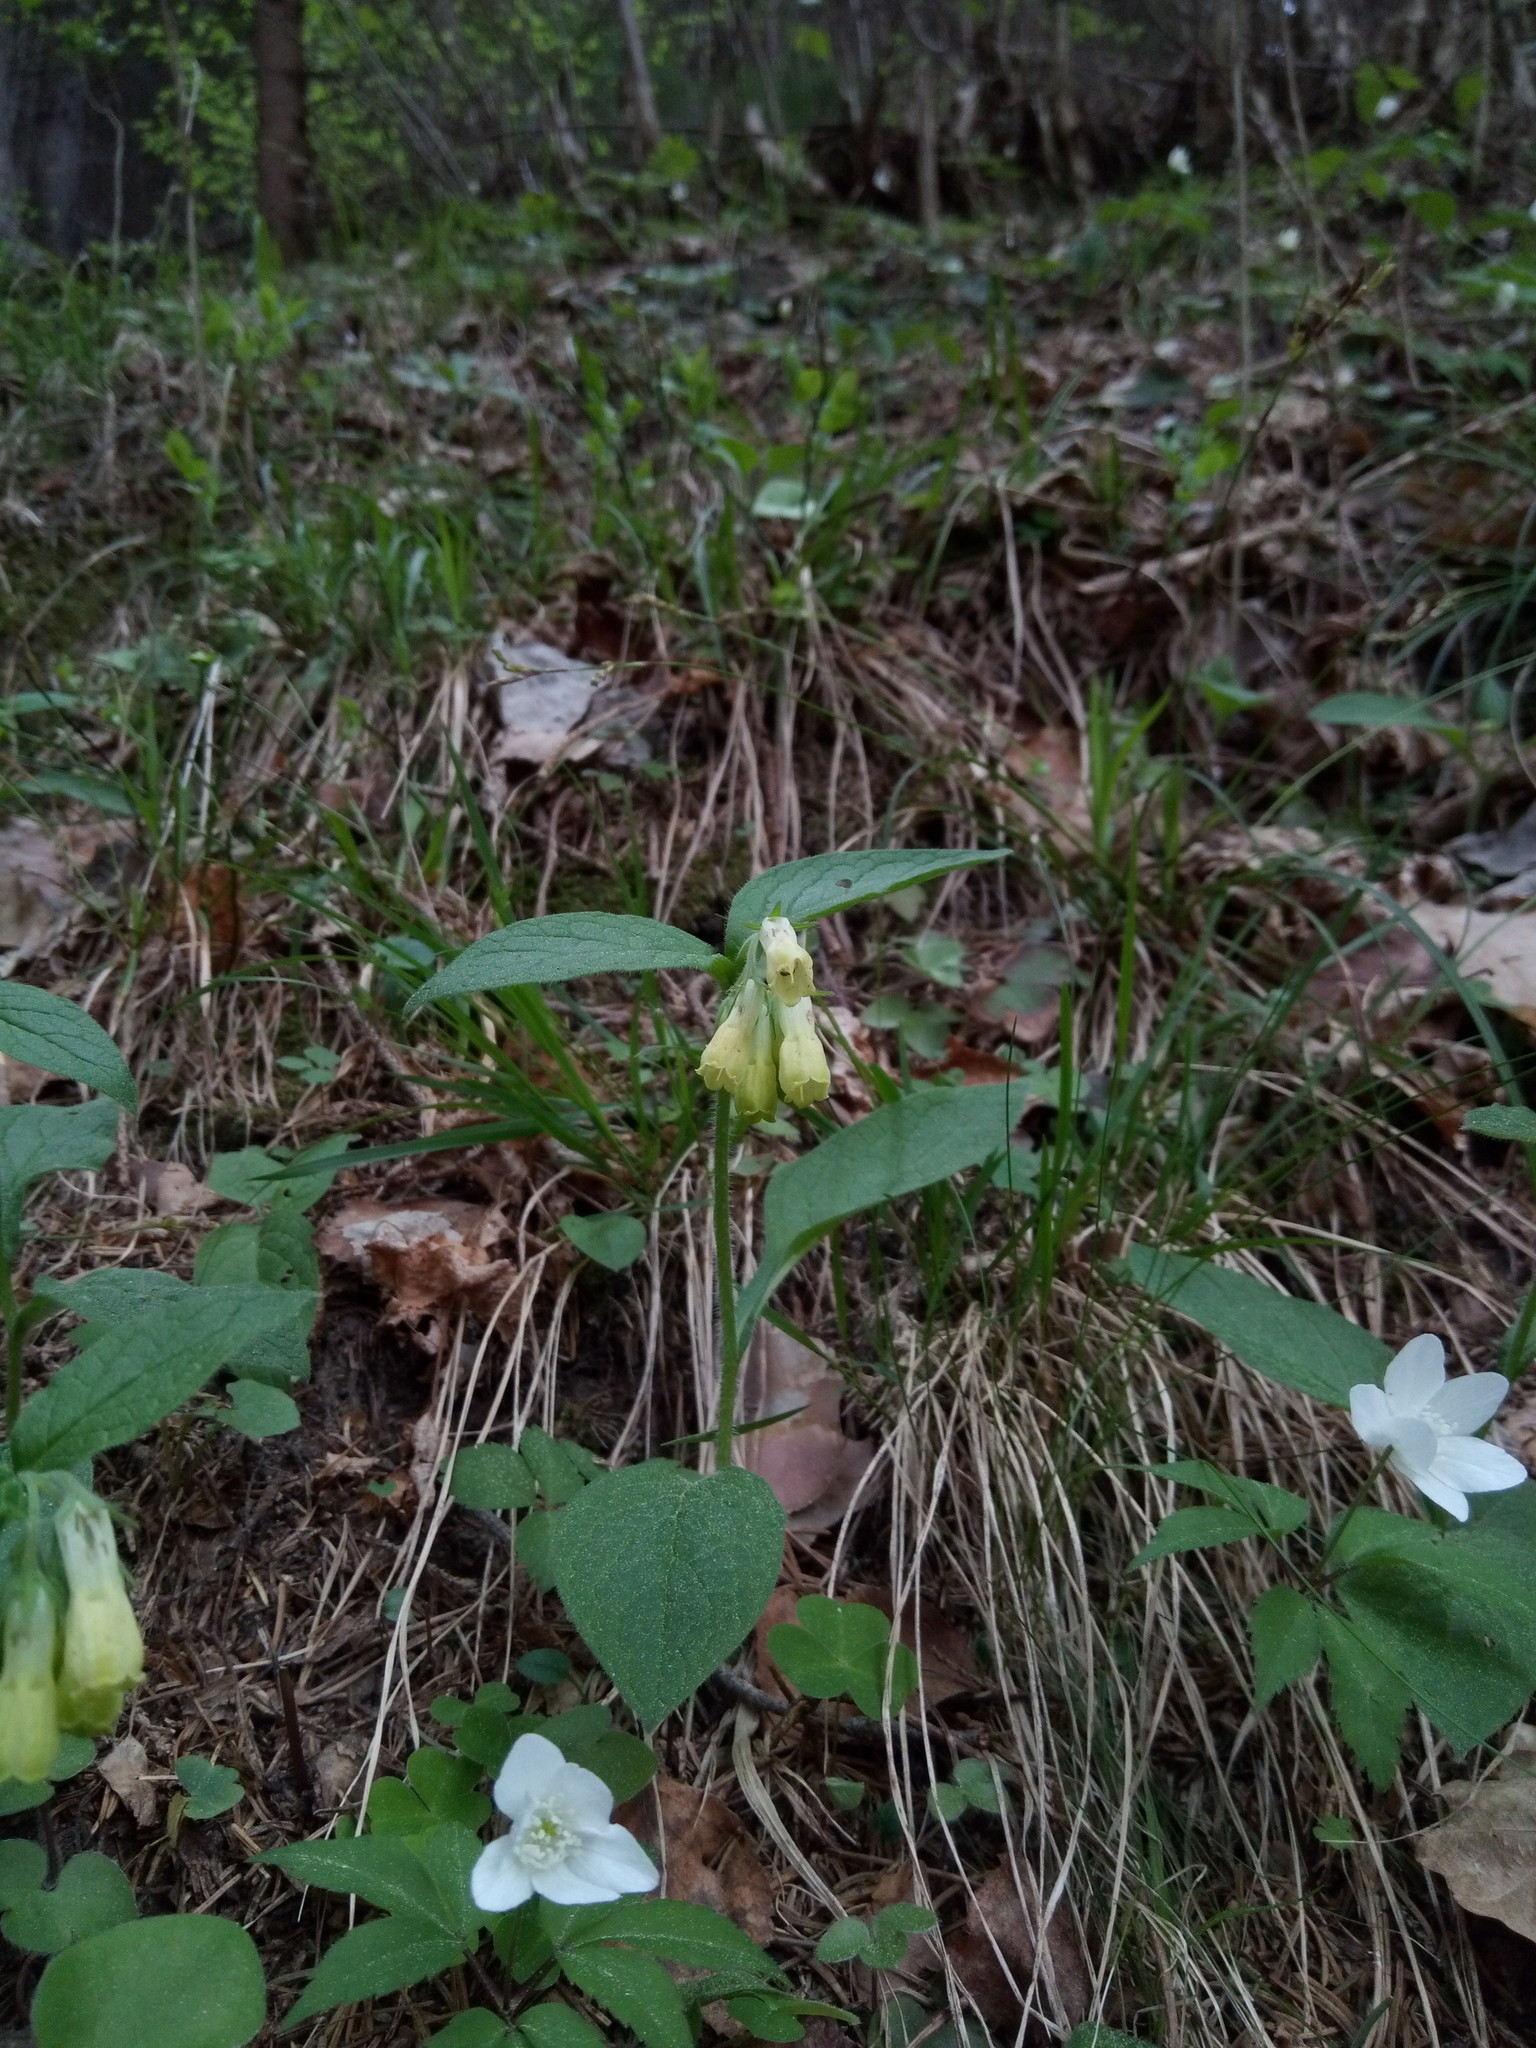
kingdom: Plantae
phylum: Tracheophyta
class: Magnoliopsida
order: Boraginales
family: Boraginaceae
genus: Symphytum
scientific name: Symphytum tuberosum
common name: Tuberous comfrey
